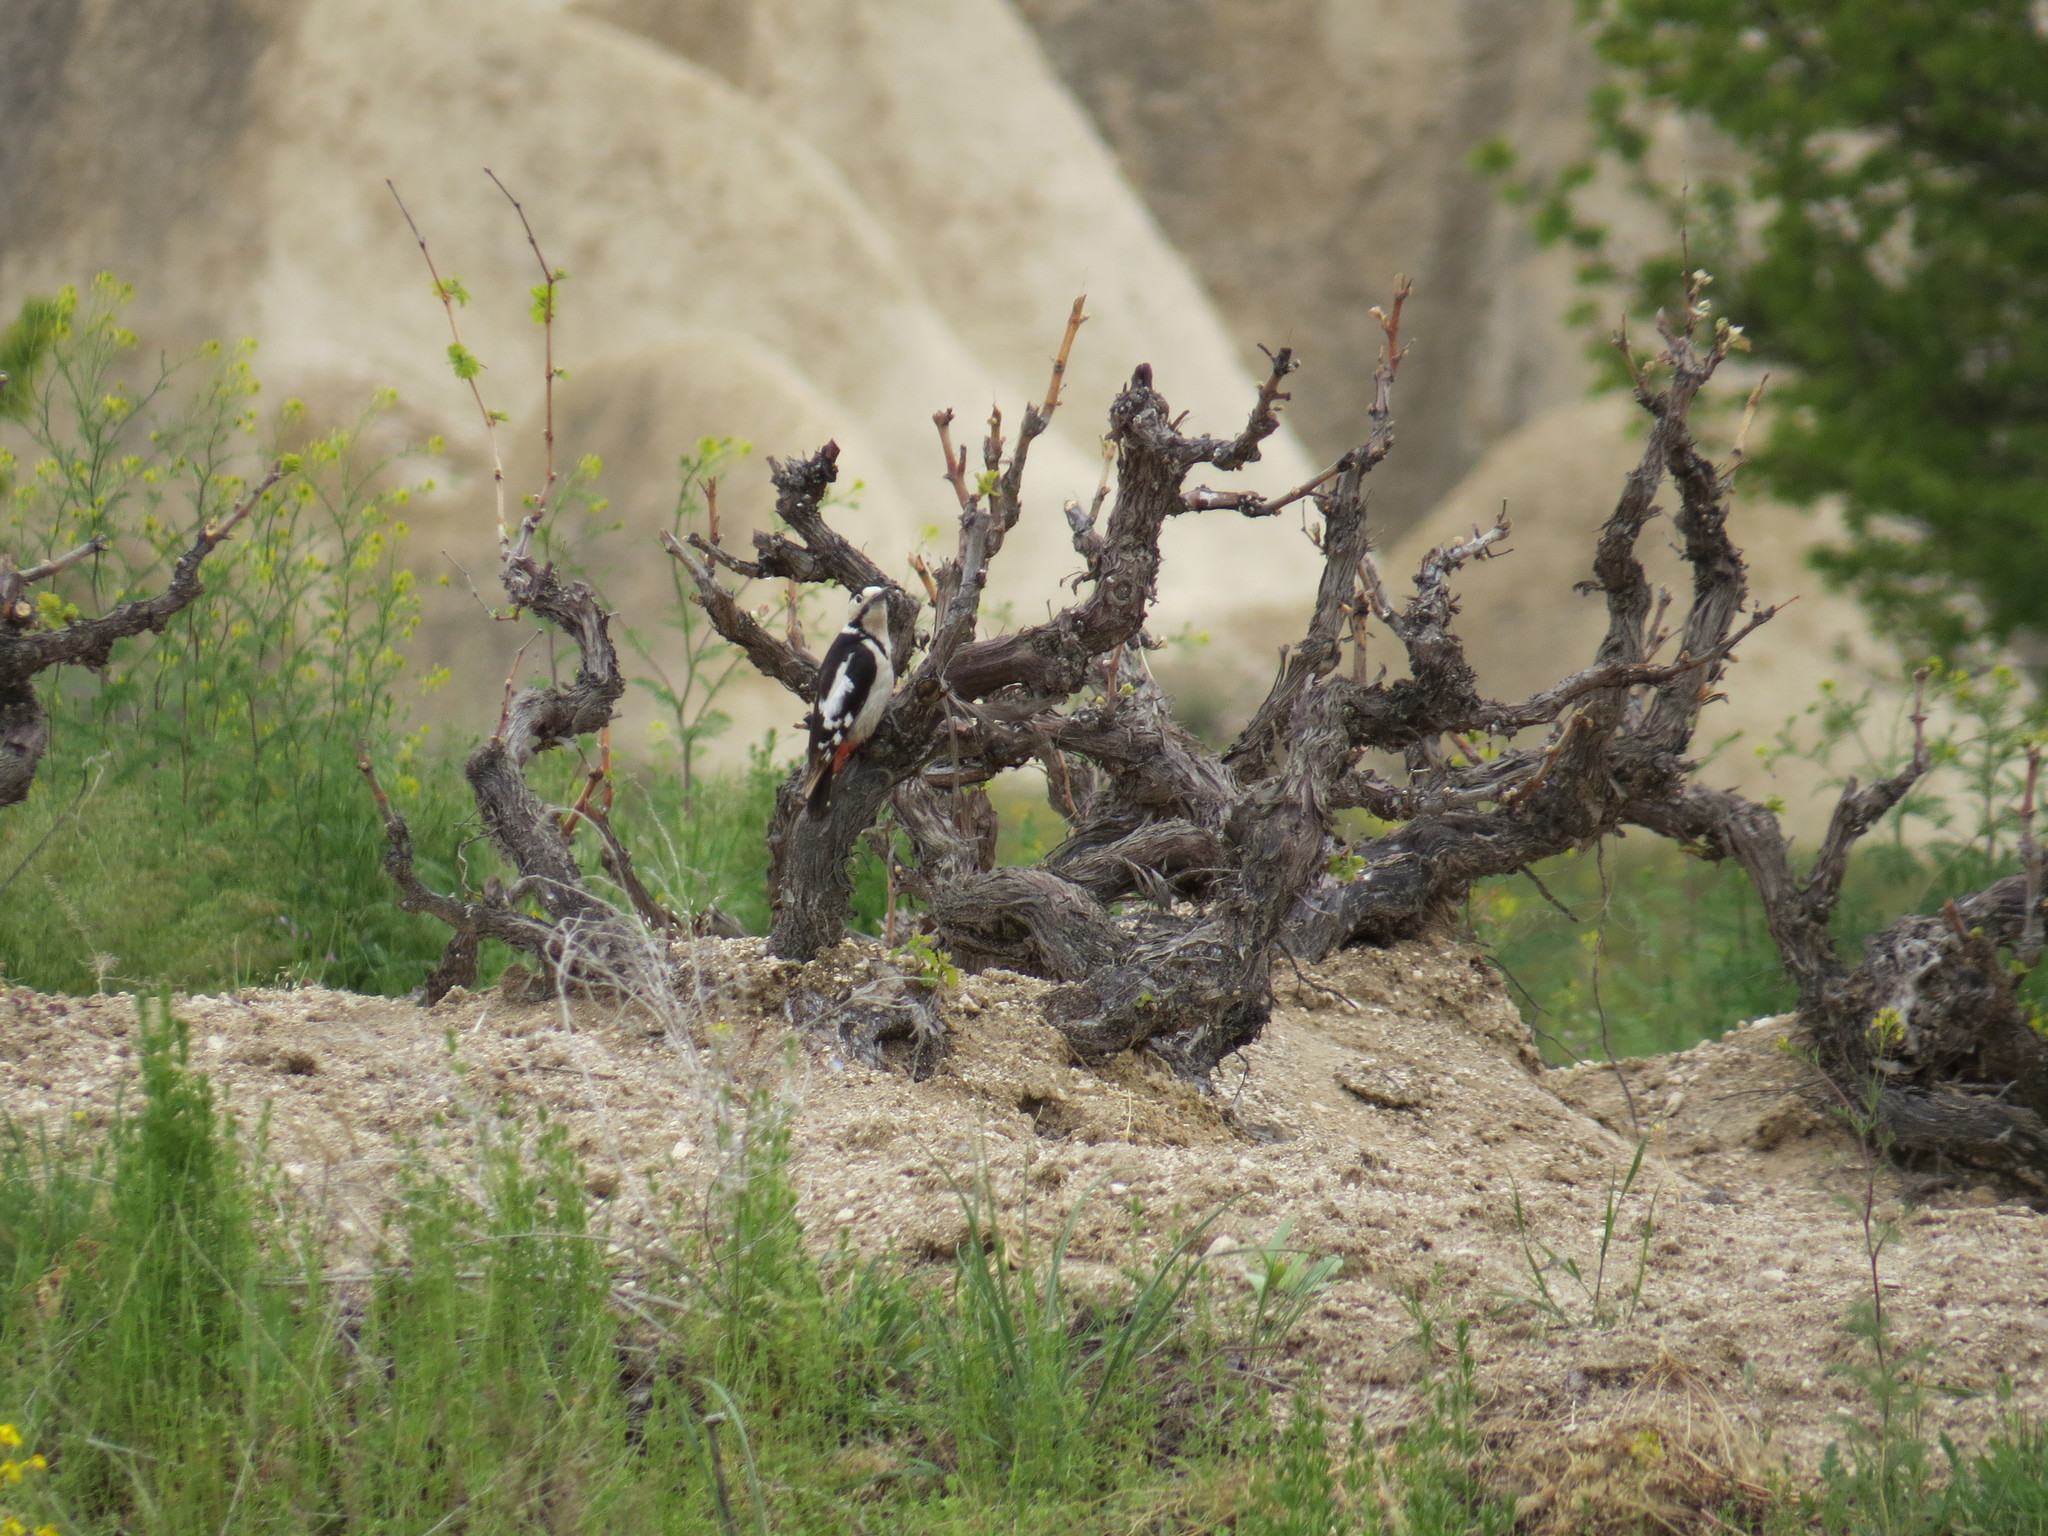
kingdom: Animalia
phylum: Chordata
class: Aves
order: Piciformes
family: Picidae
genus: Dendrocopos
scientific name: Dendrocopos syriacus
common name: Syrian woodpecker
